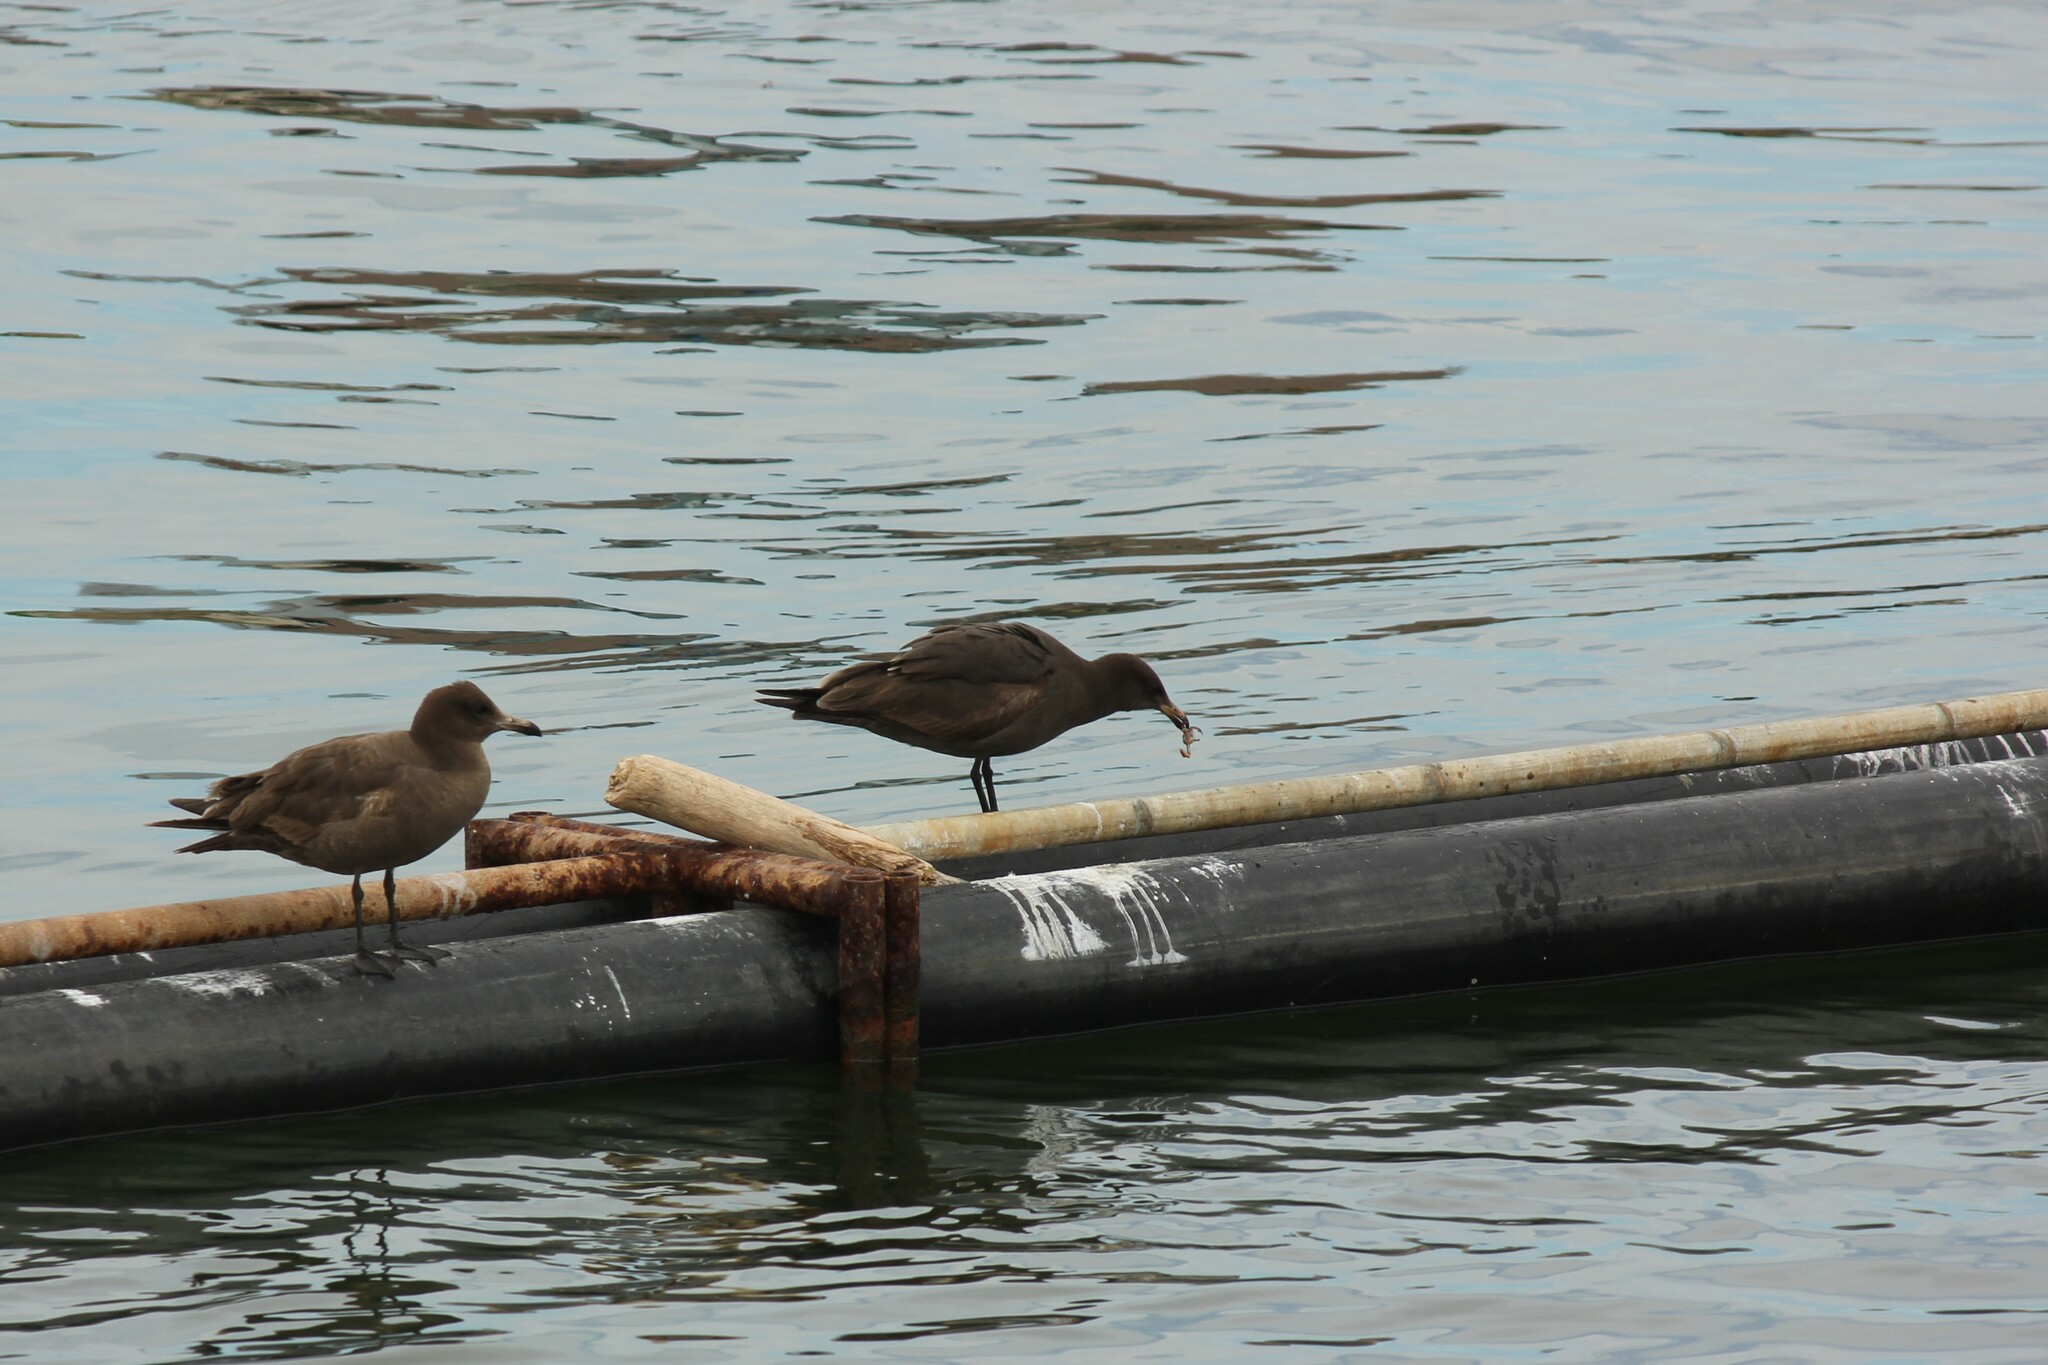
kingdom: Animalia
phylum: Chordata
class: Aves
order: Charadriiformes
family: Laridae
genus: Larus
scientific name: Larus heermanni
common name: Heermann's gull
